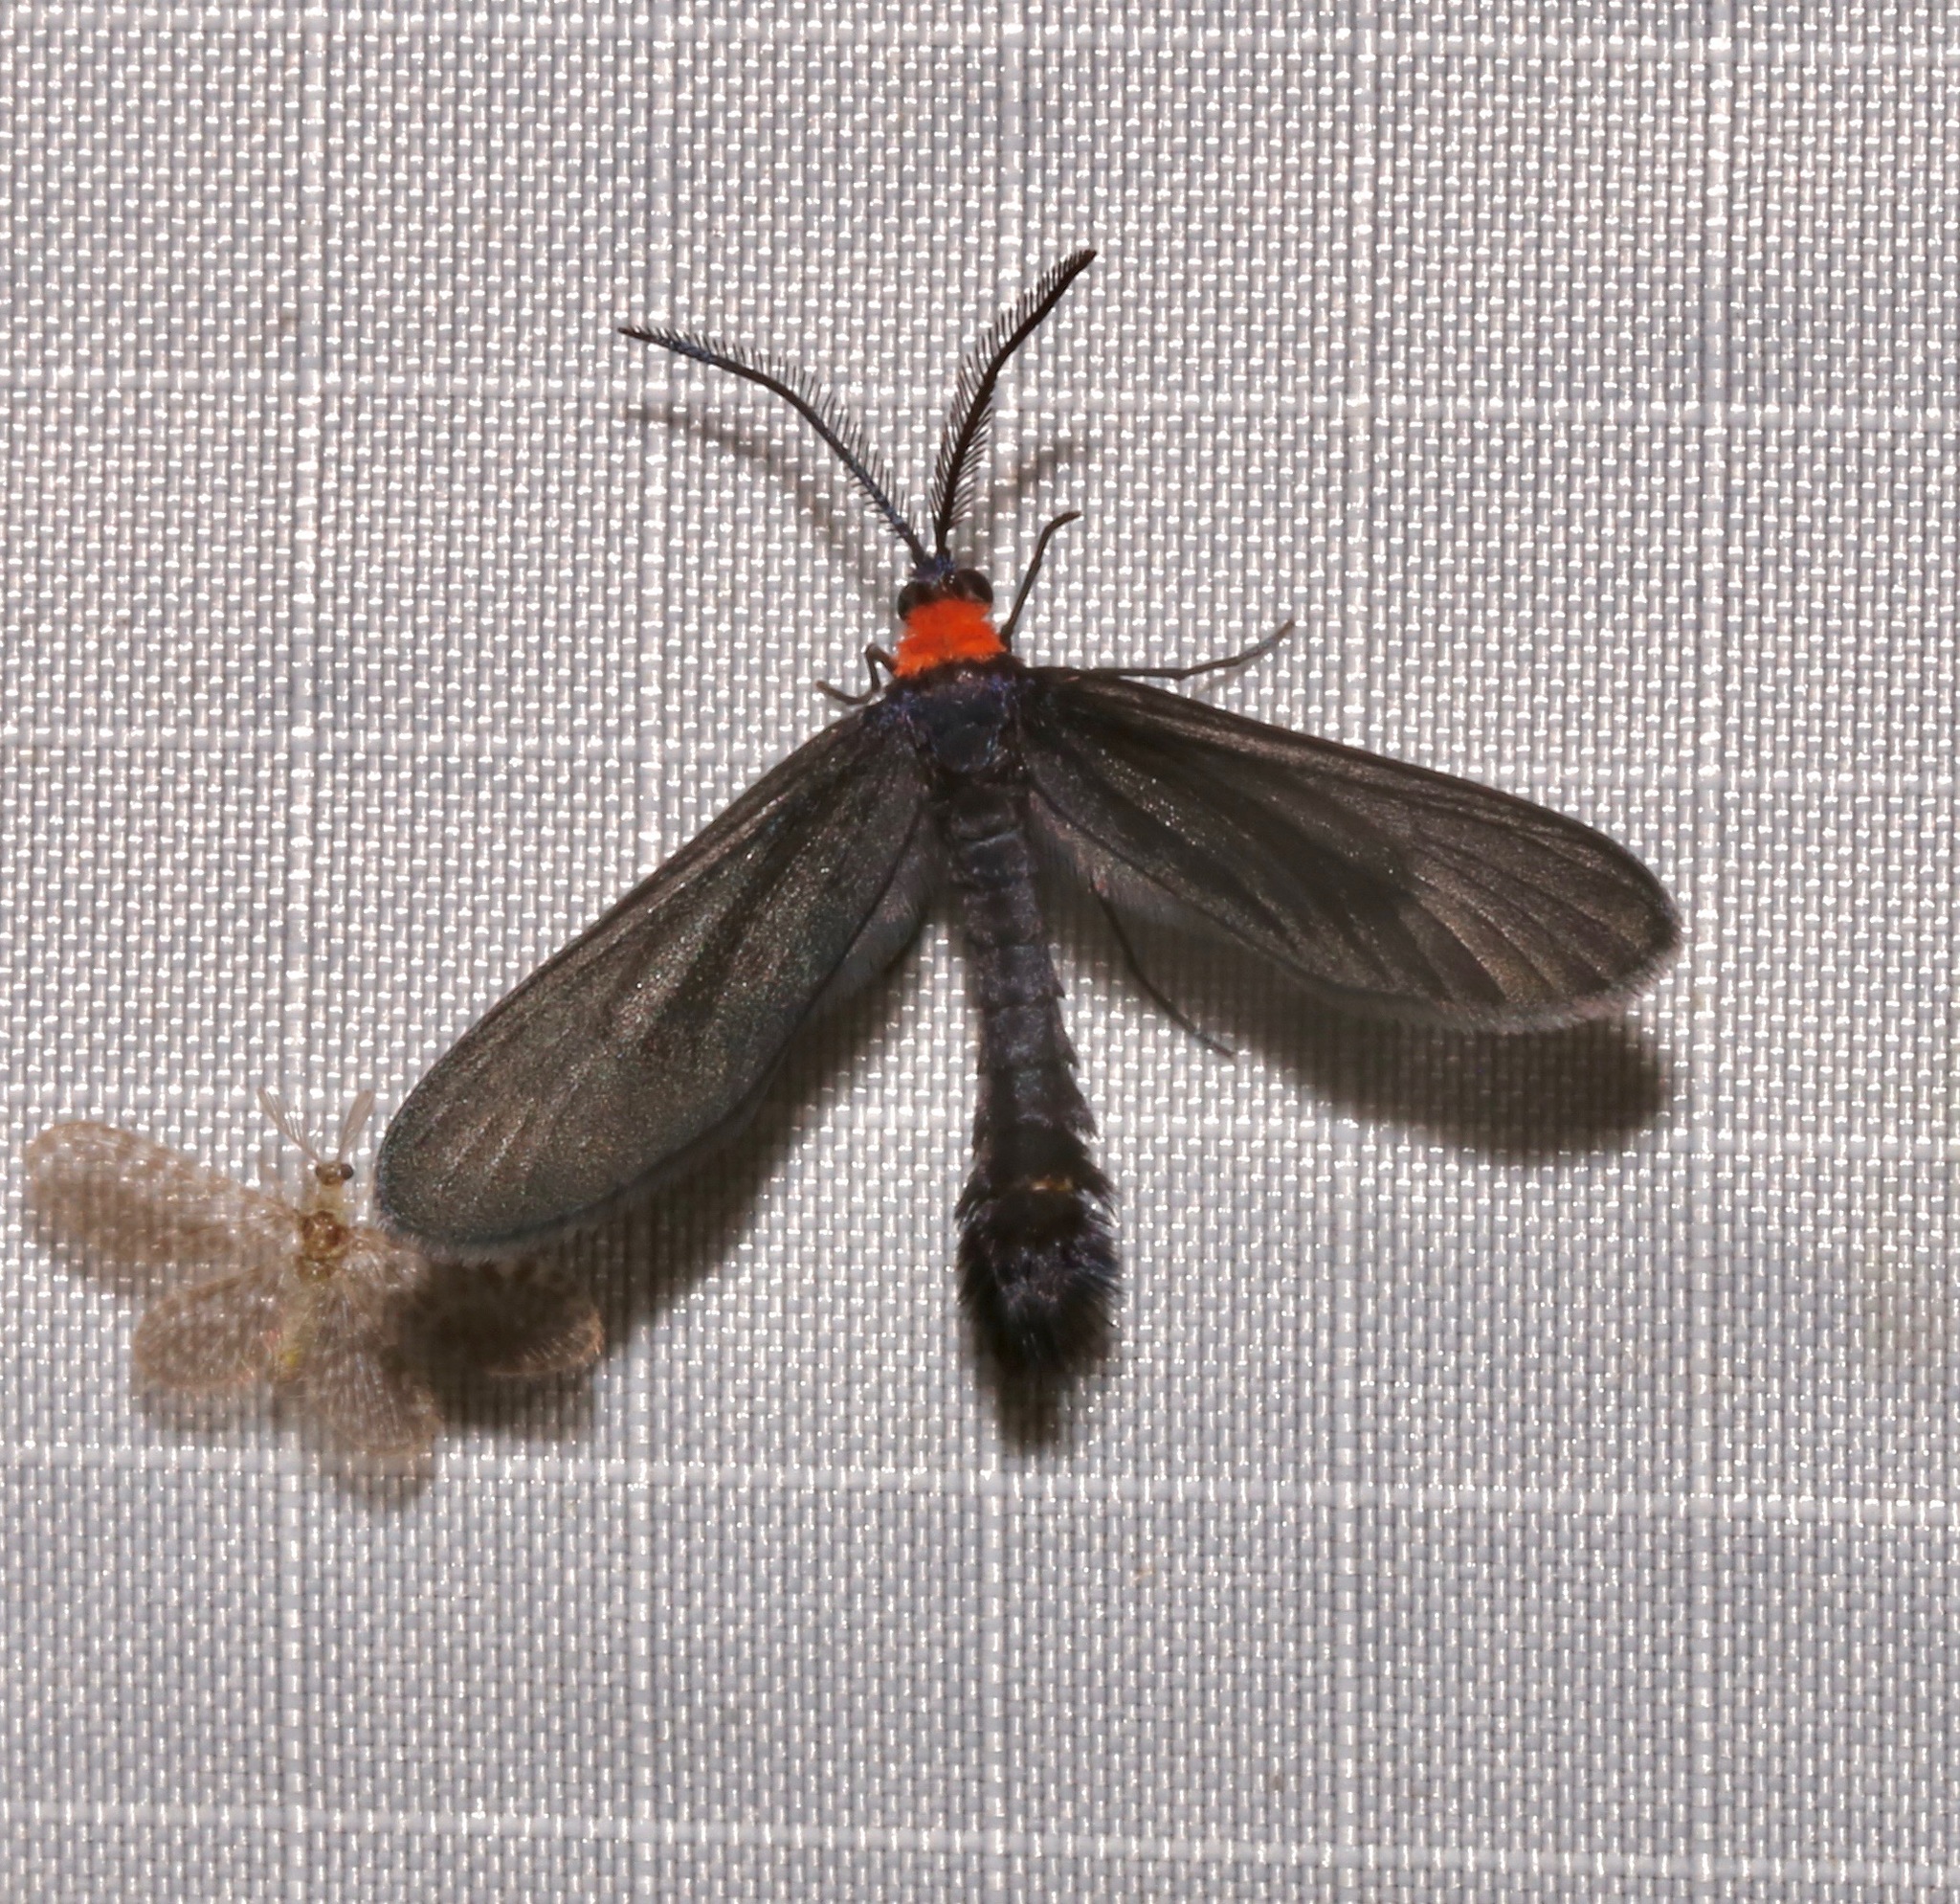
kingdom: Animalia
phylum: Arthropoda
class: Insecta
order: Lepidoptera
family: Zygaenidae
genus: Harrisina
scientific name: Harrisina americana
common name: Grapeleaf skeletonizer moth
